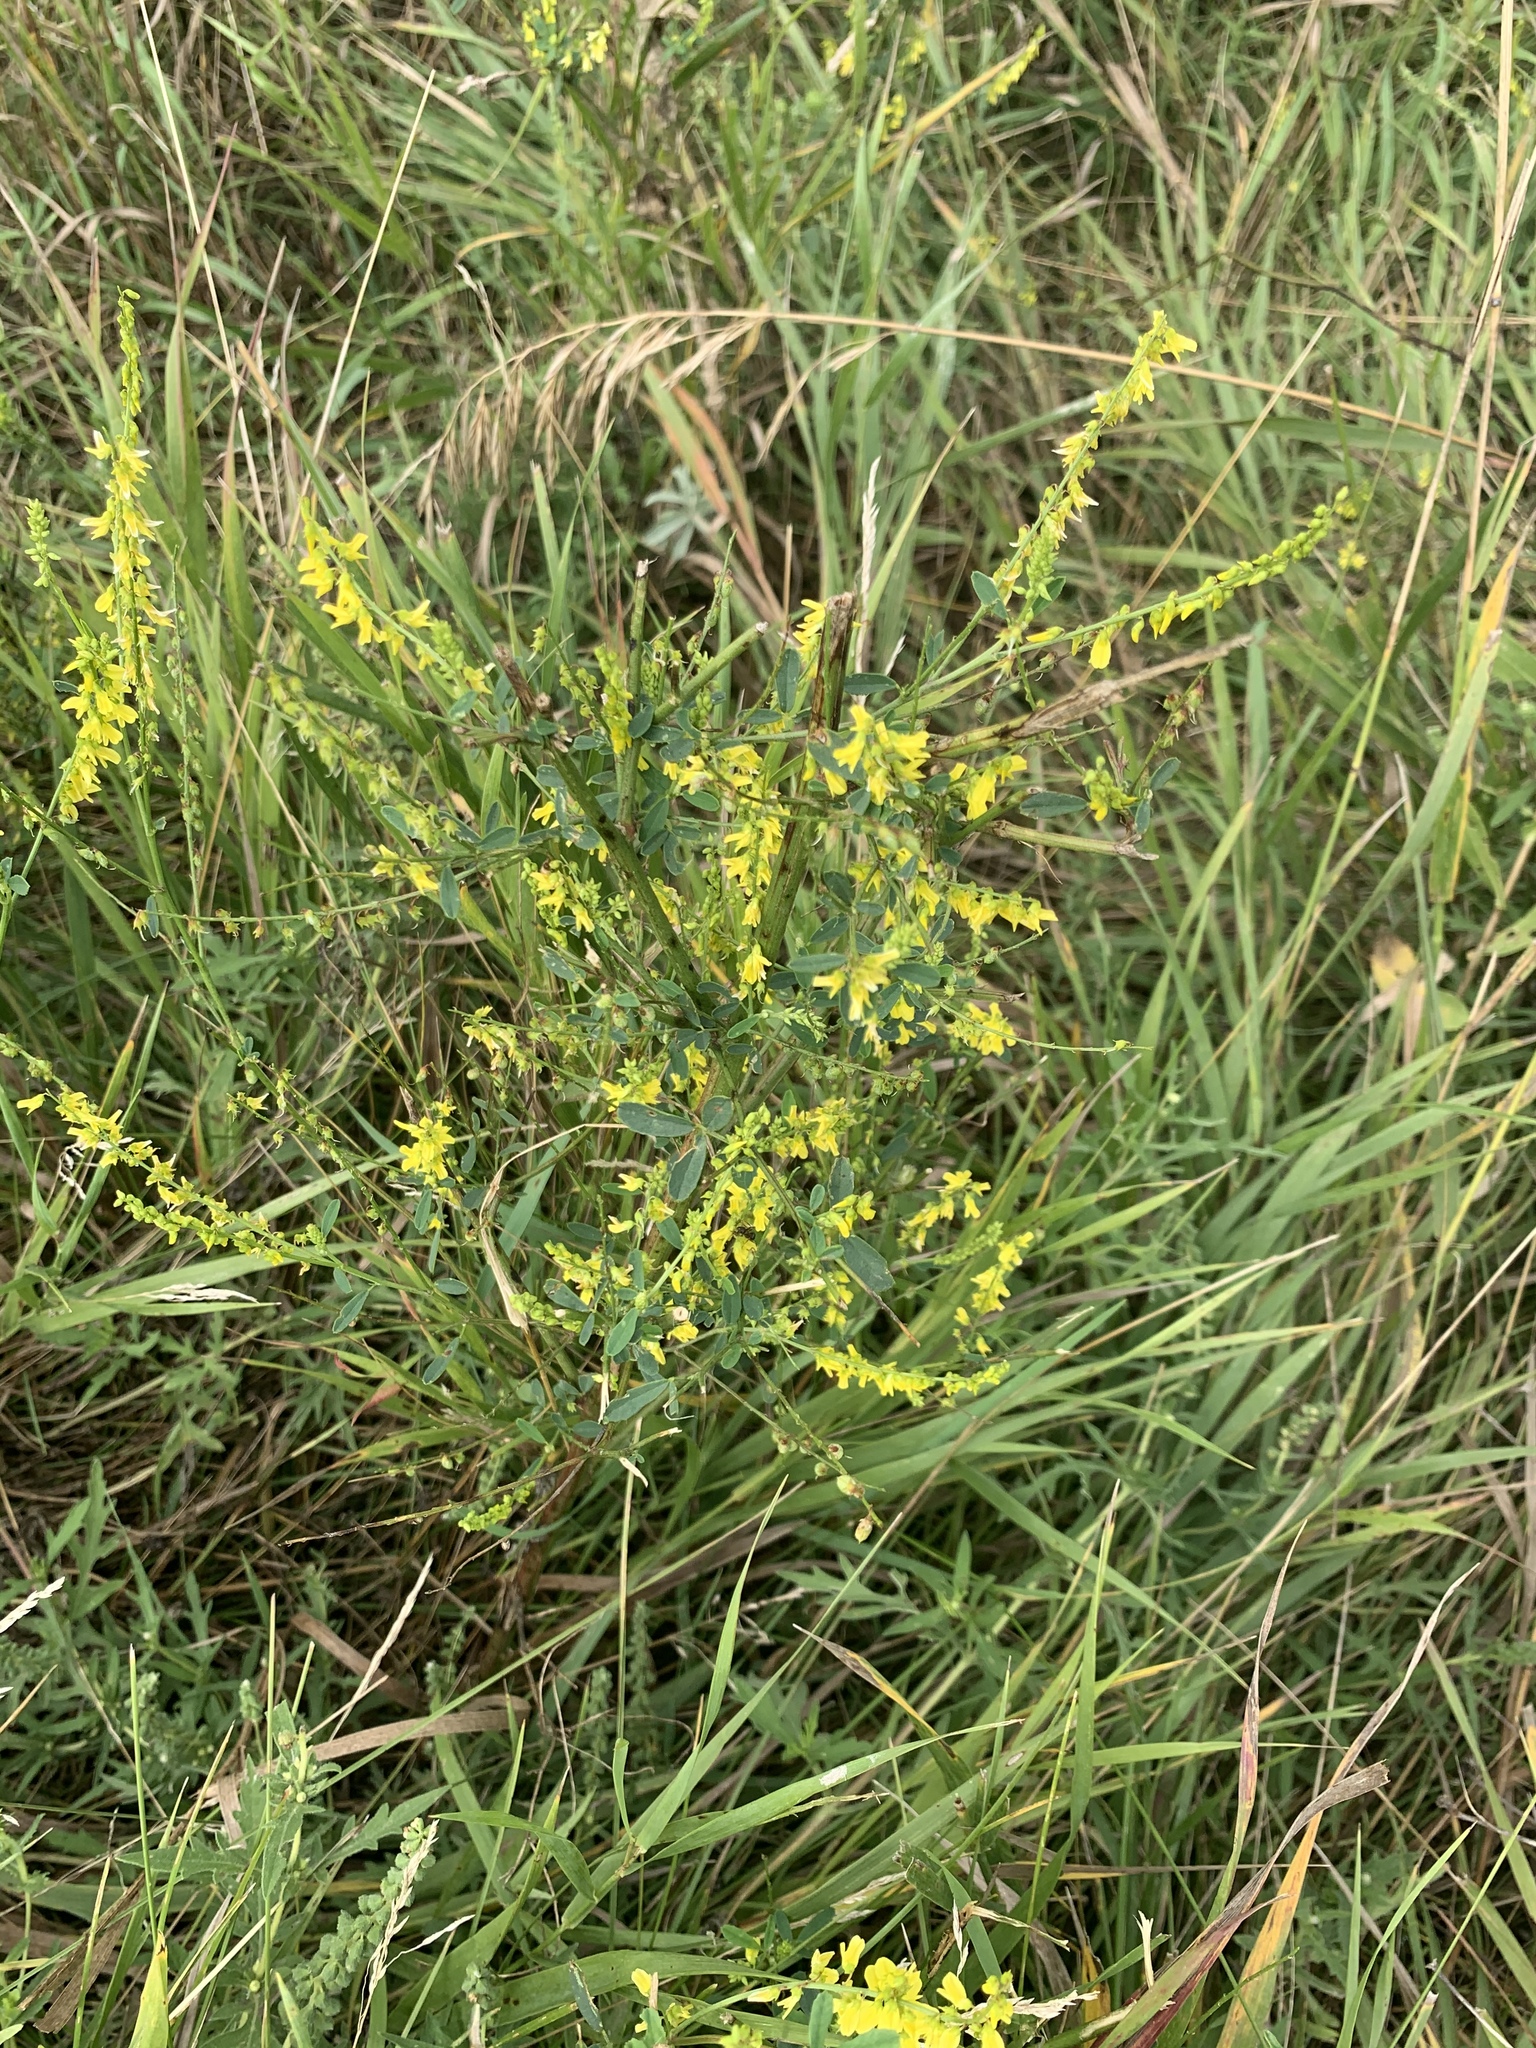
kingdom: Plantae
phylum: Tracheophyta
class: Magnoliopsida
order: Fabales
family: Fabaceae
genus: Melilotus
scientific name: Melilotus officinalis
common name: Sweetclover
